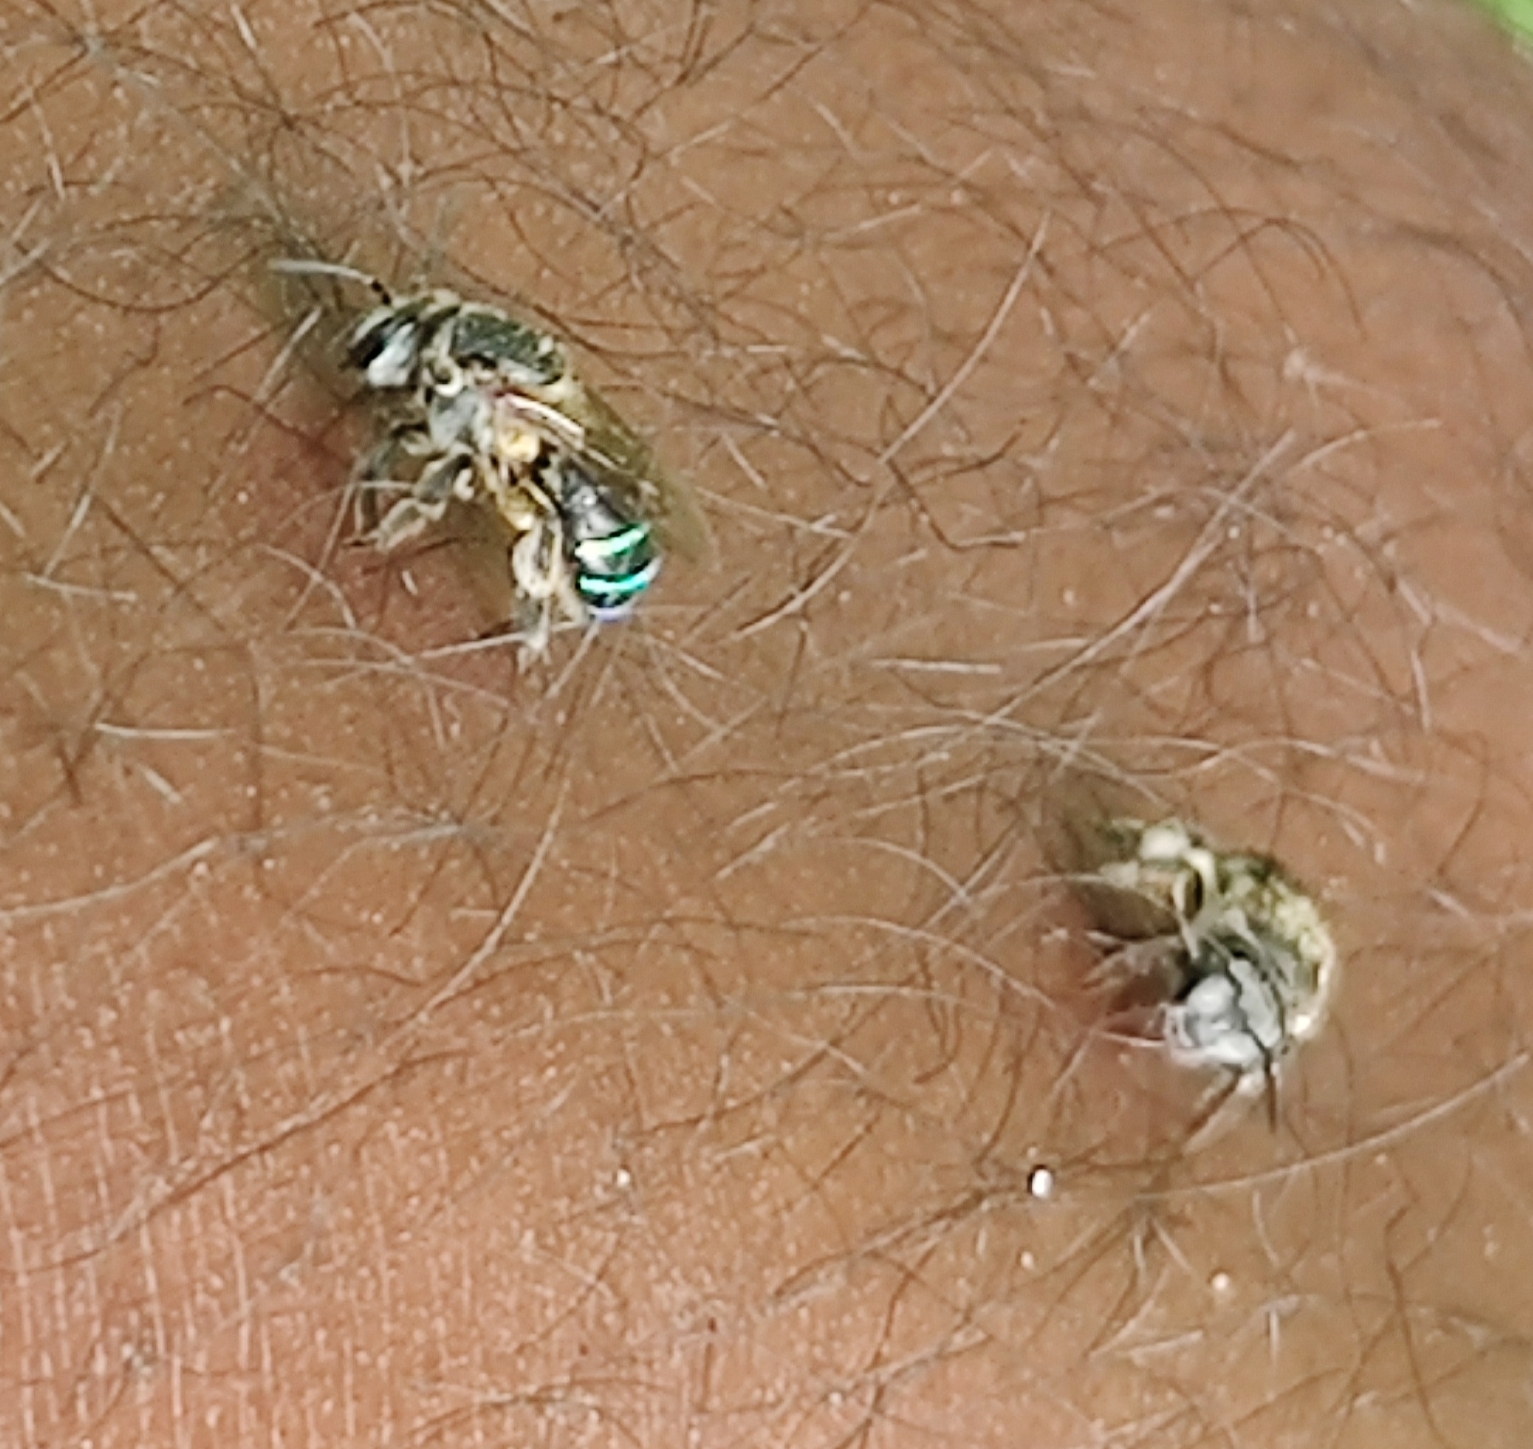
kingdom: Animalia
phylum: Arthropoda
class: Insecta
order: Hymenoptera
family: Halictidae
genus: Nomia
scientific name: Nomia iridescens
